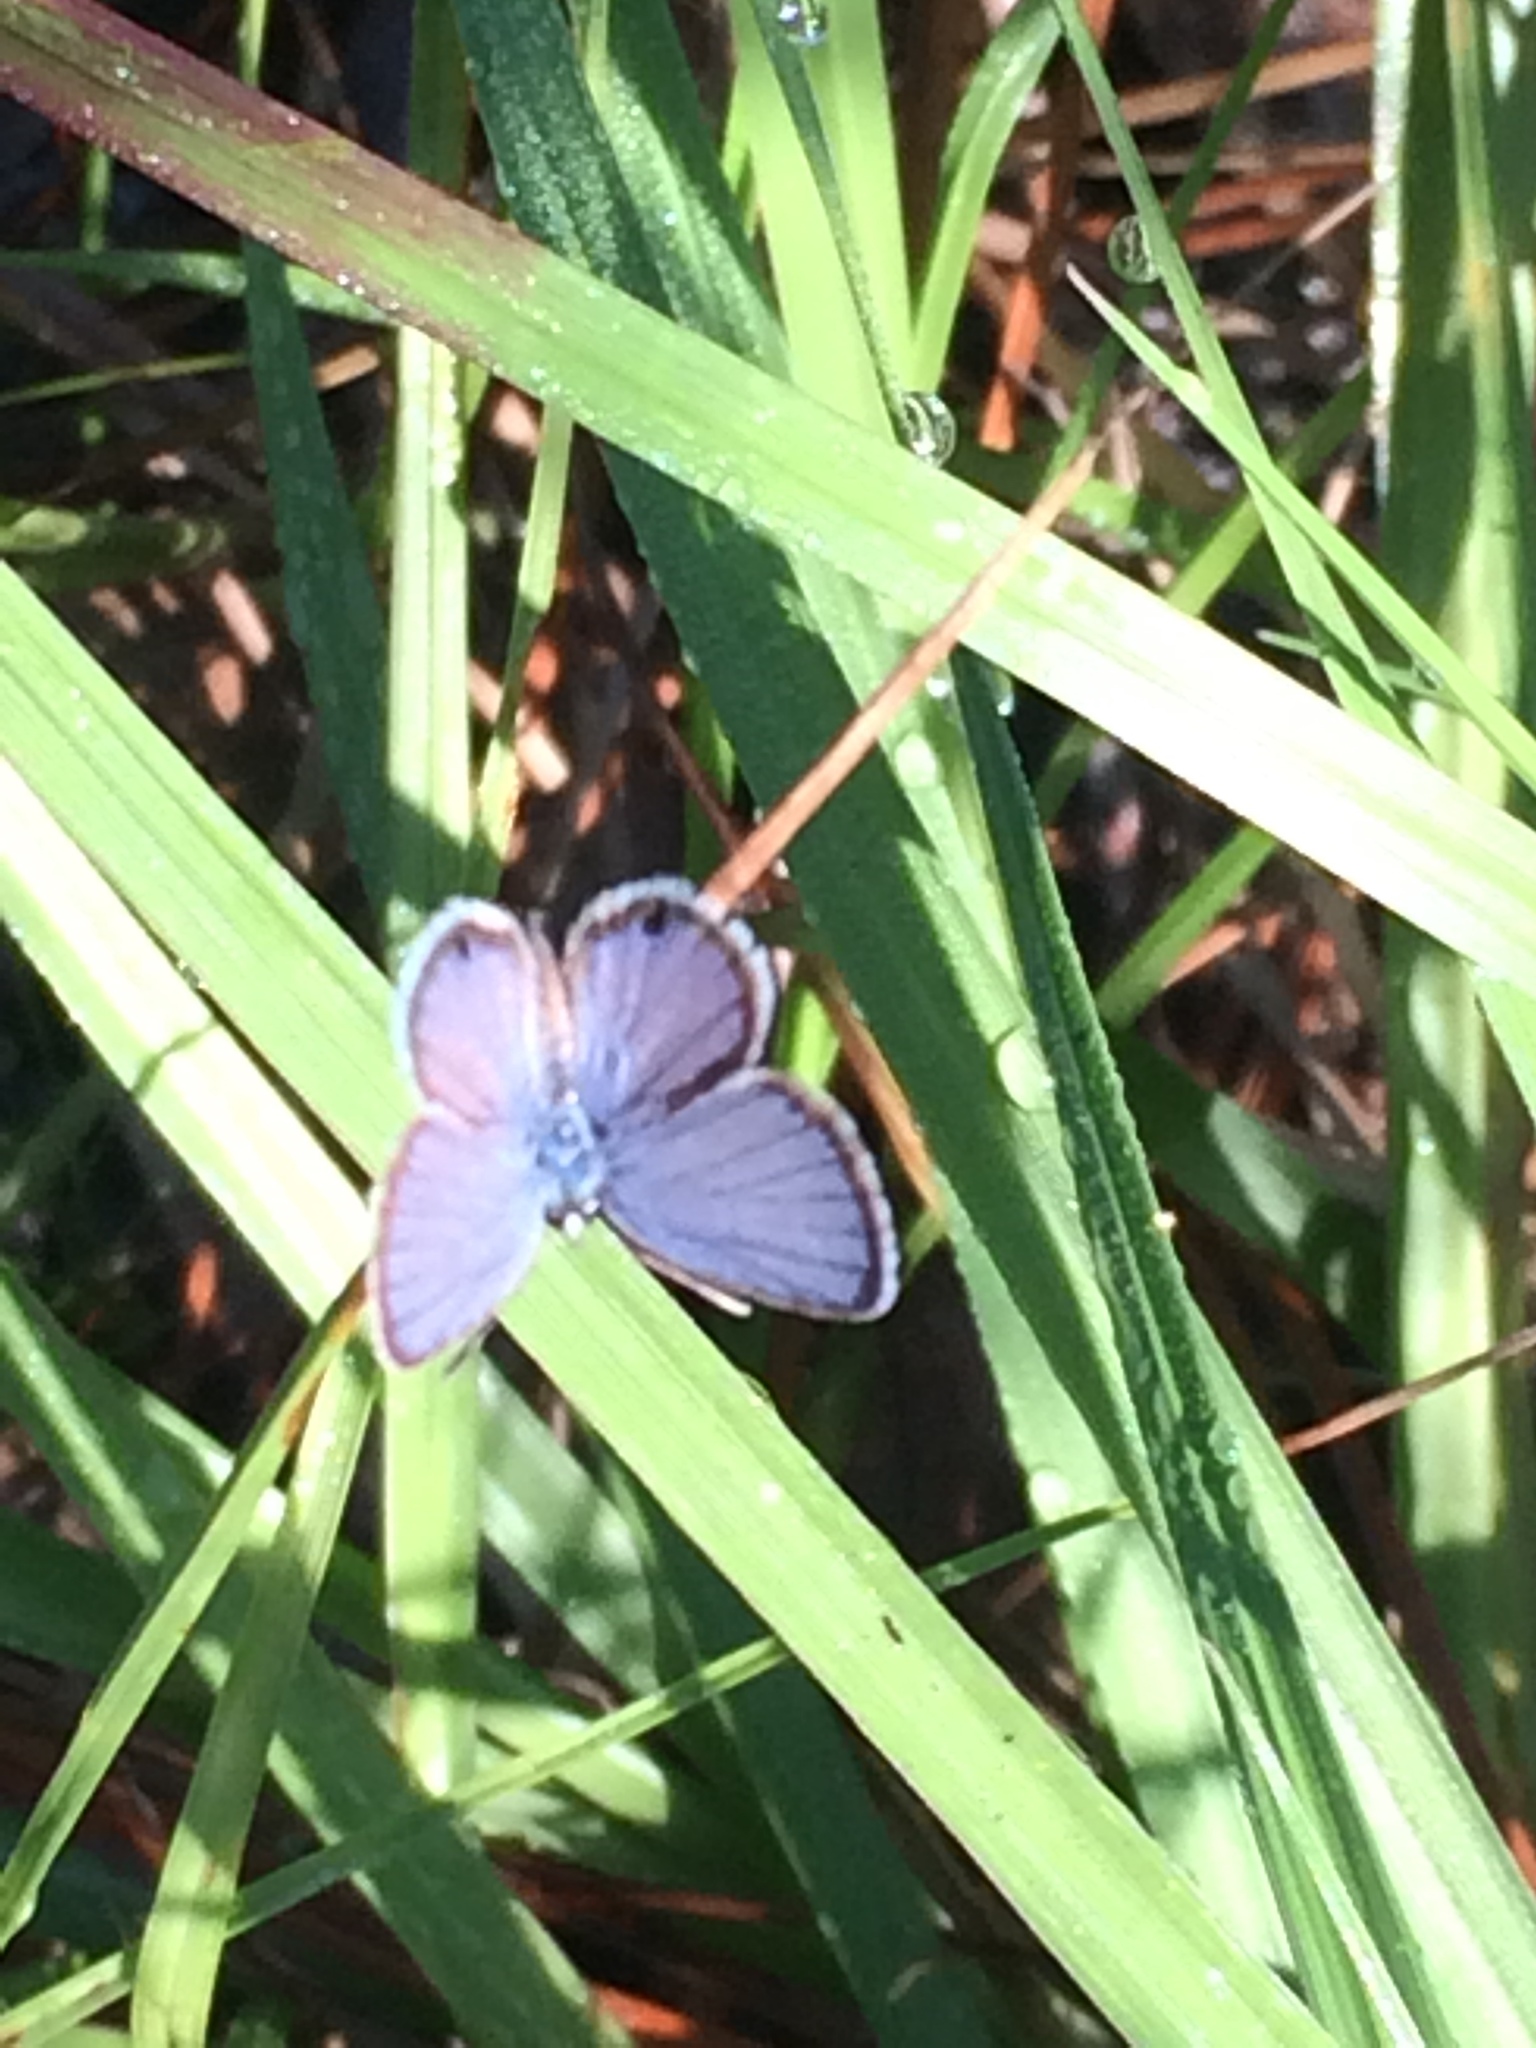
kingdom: Animalia
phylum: Arthropoda
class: Insecta
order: Lepidoptera
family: Lycaenidae
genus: Hemiargus
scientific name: Hemiargus ceraunus
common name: Ceraunus blue
